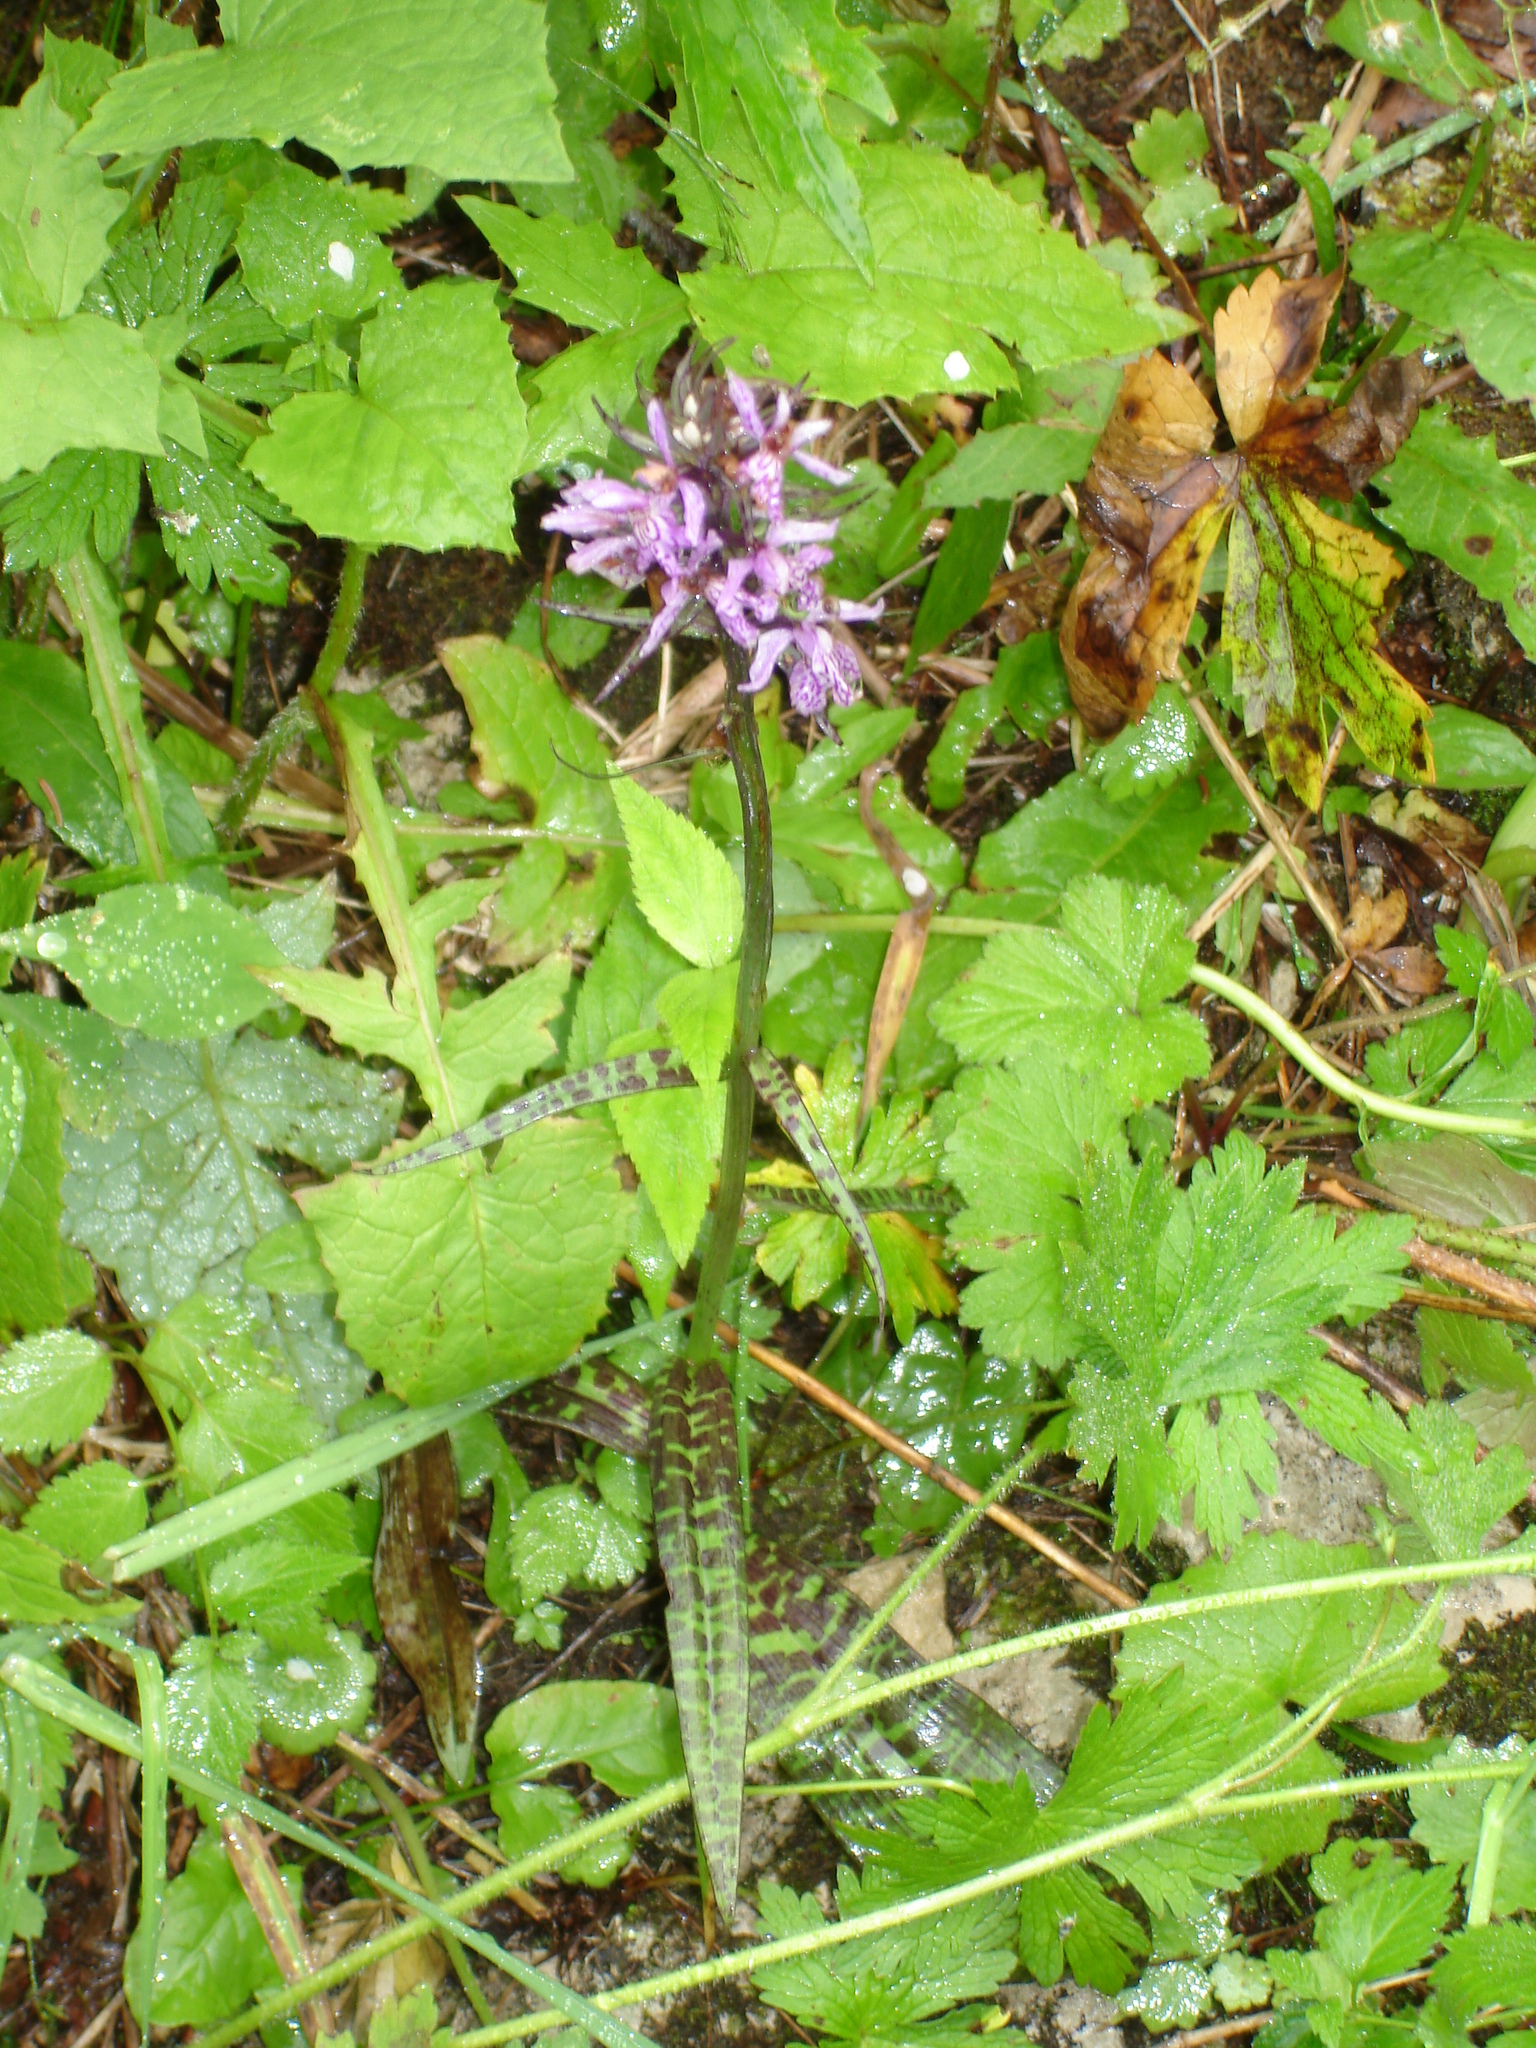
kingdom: Plantae
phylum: Tracheophyta
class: Liliopsida
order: Asparagales
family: Orchidaceae
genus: Dactylorhiza
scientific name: Dactylorhiza maculata
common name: Heath spotted-orchid
